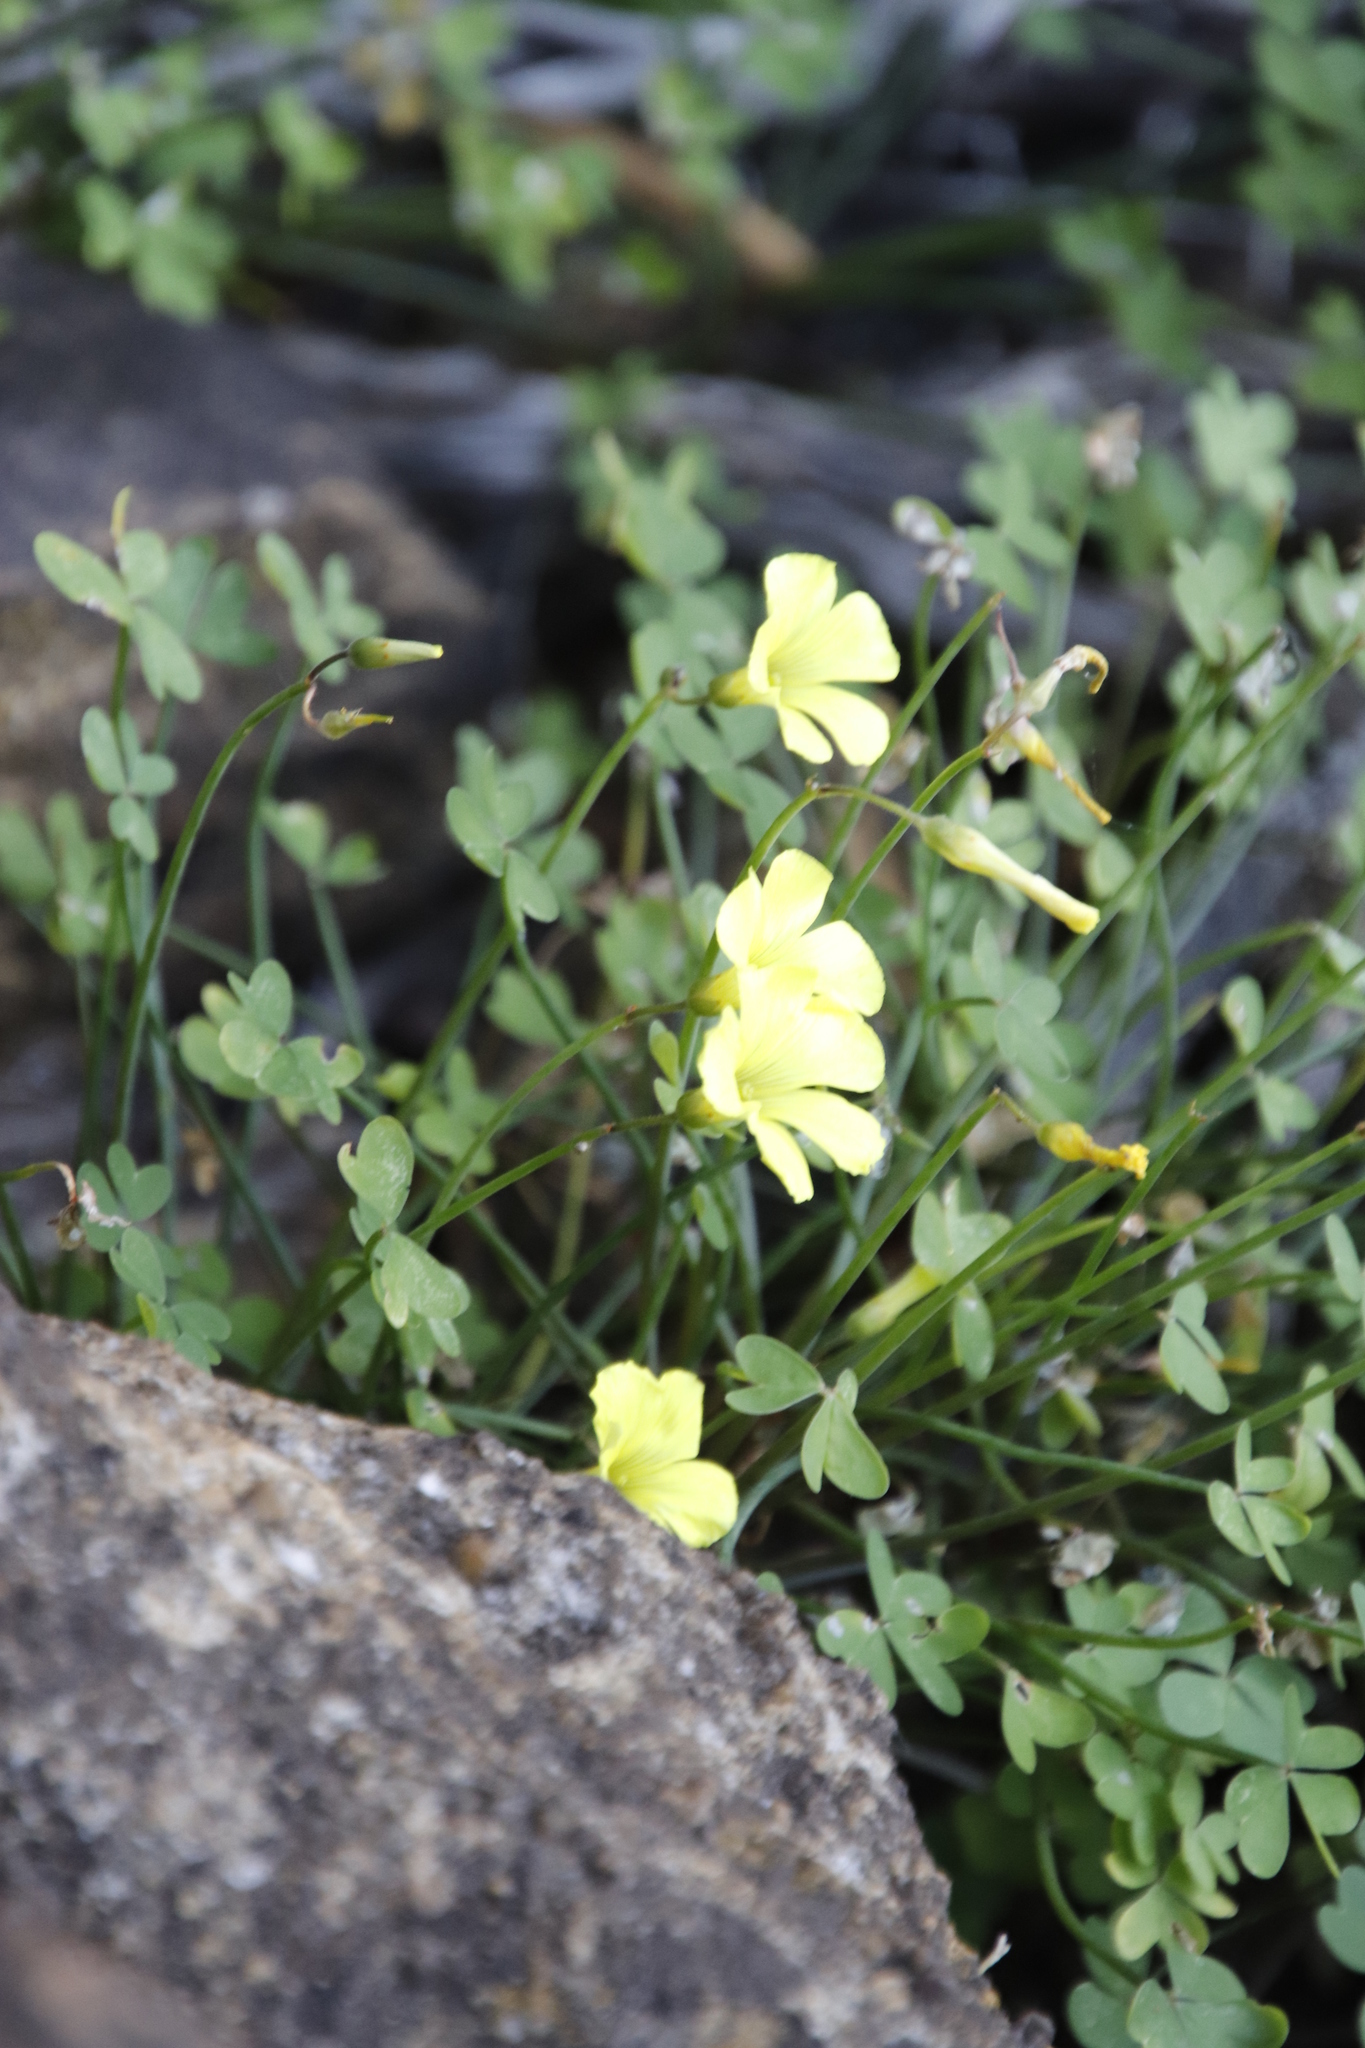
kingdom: Plantae
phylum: Tracheophyta
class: Magnoliopsida
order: Oxalidales
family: Oxalidaceae
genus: Oxalis
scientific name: Oxalis pes-caprae
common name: Bermuda-buttercup
